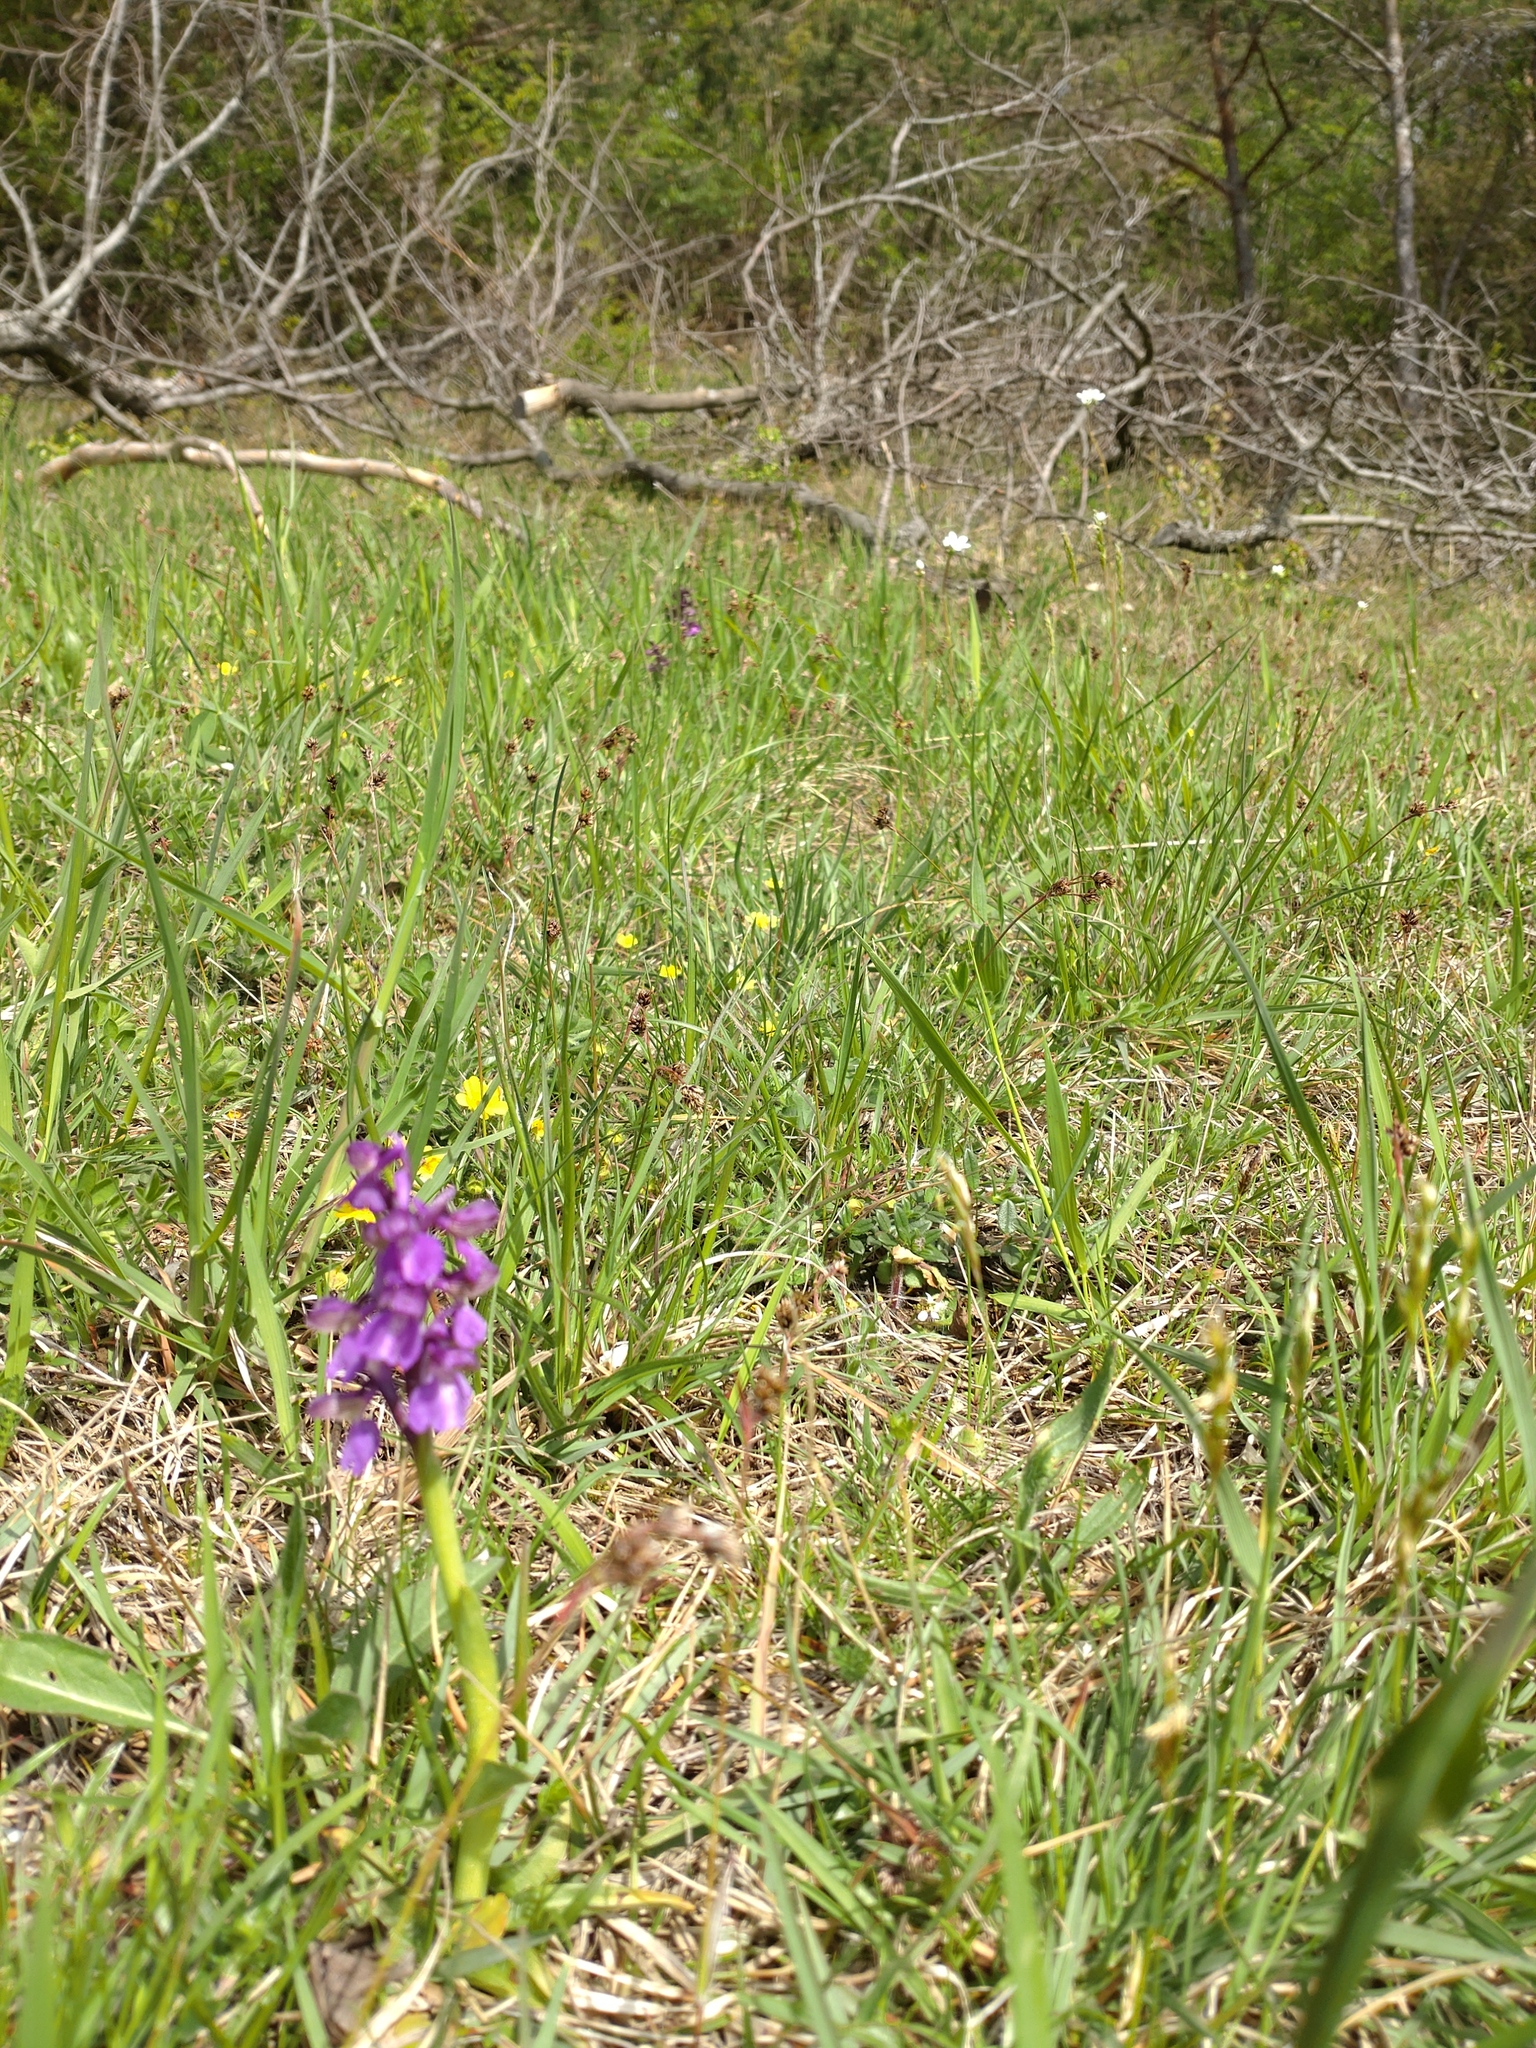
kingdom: Plantae
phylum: Tracheophyta
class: Liliopsida
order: Asparagales
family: Orchidaceae
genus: Anacamptis
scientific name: Anacamptis morio
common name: Green-winged orchid
